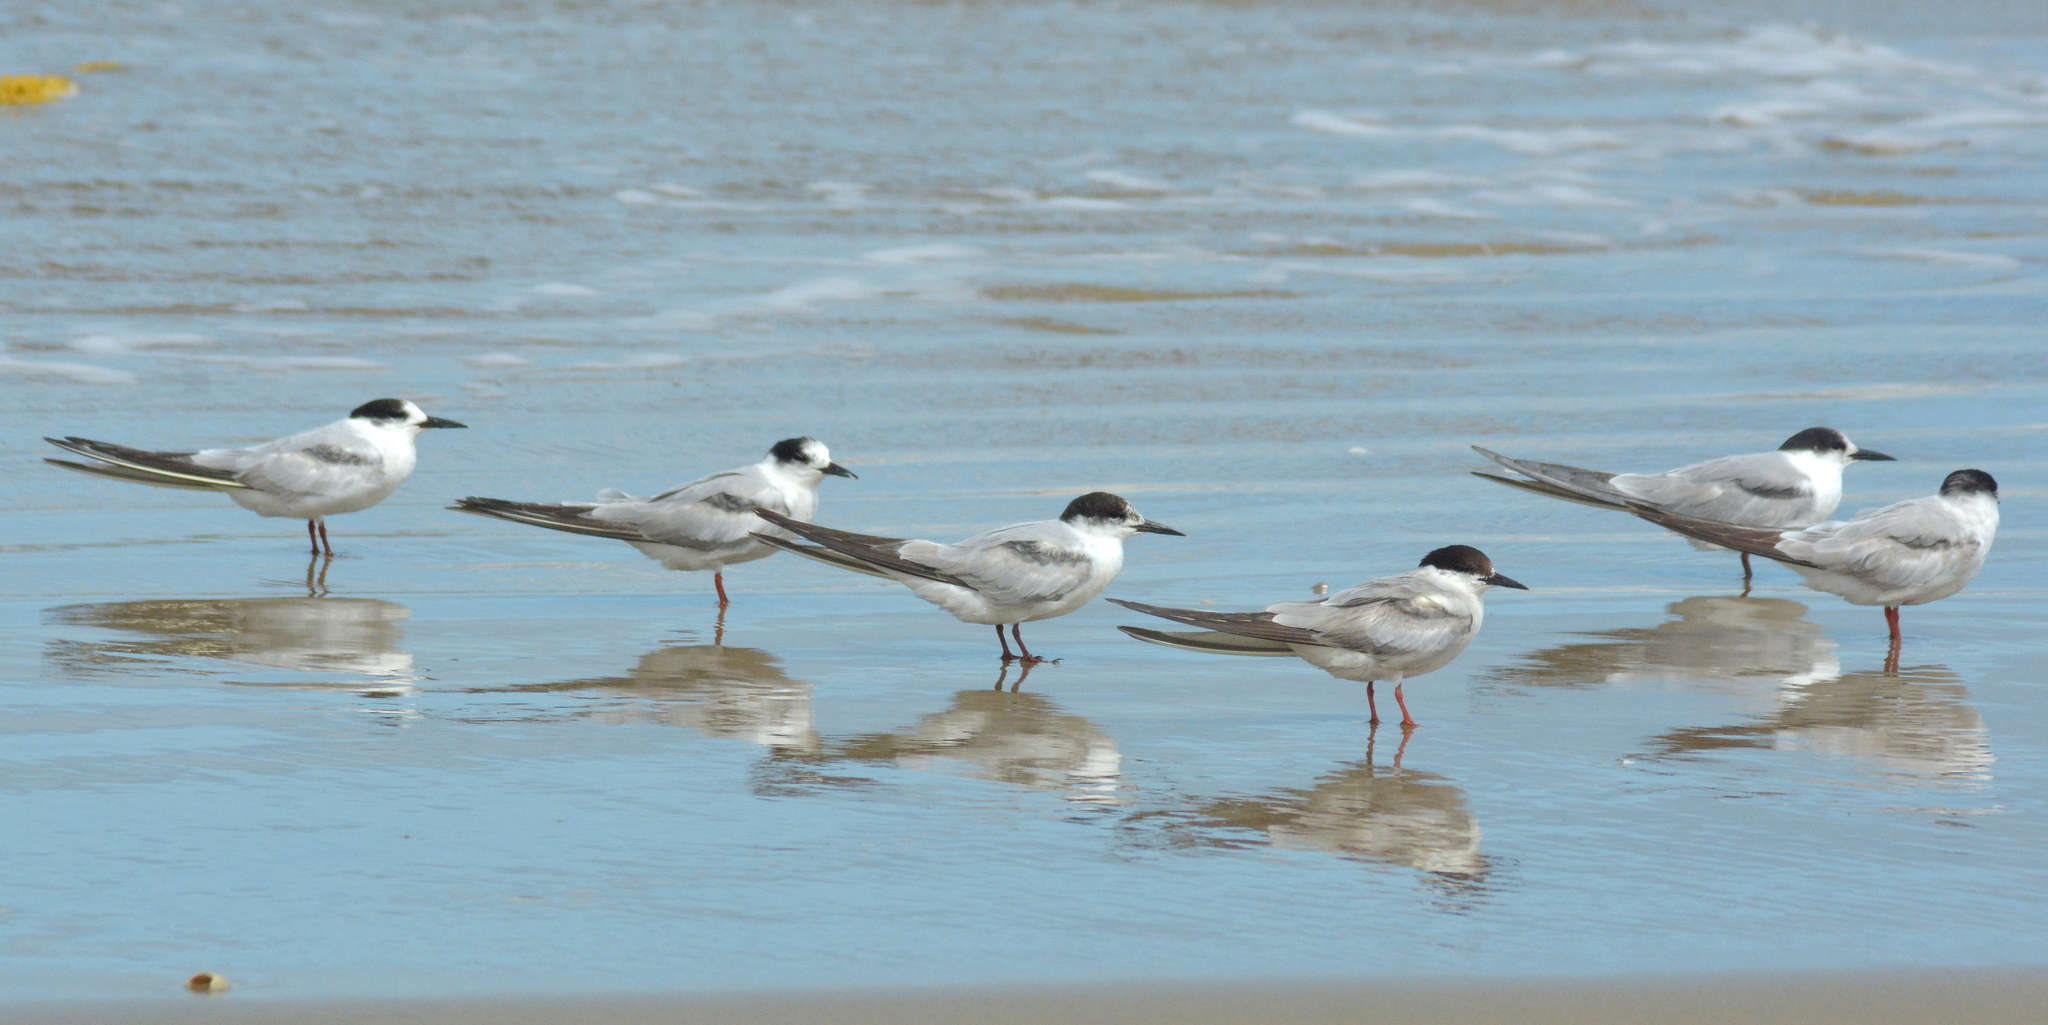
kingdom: Animalia
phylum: Chordata
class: Aves
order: Charadriiformes
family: Laridae
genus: Sterna
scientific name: Sterna hirundo
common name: Common tern
